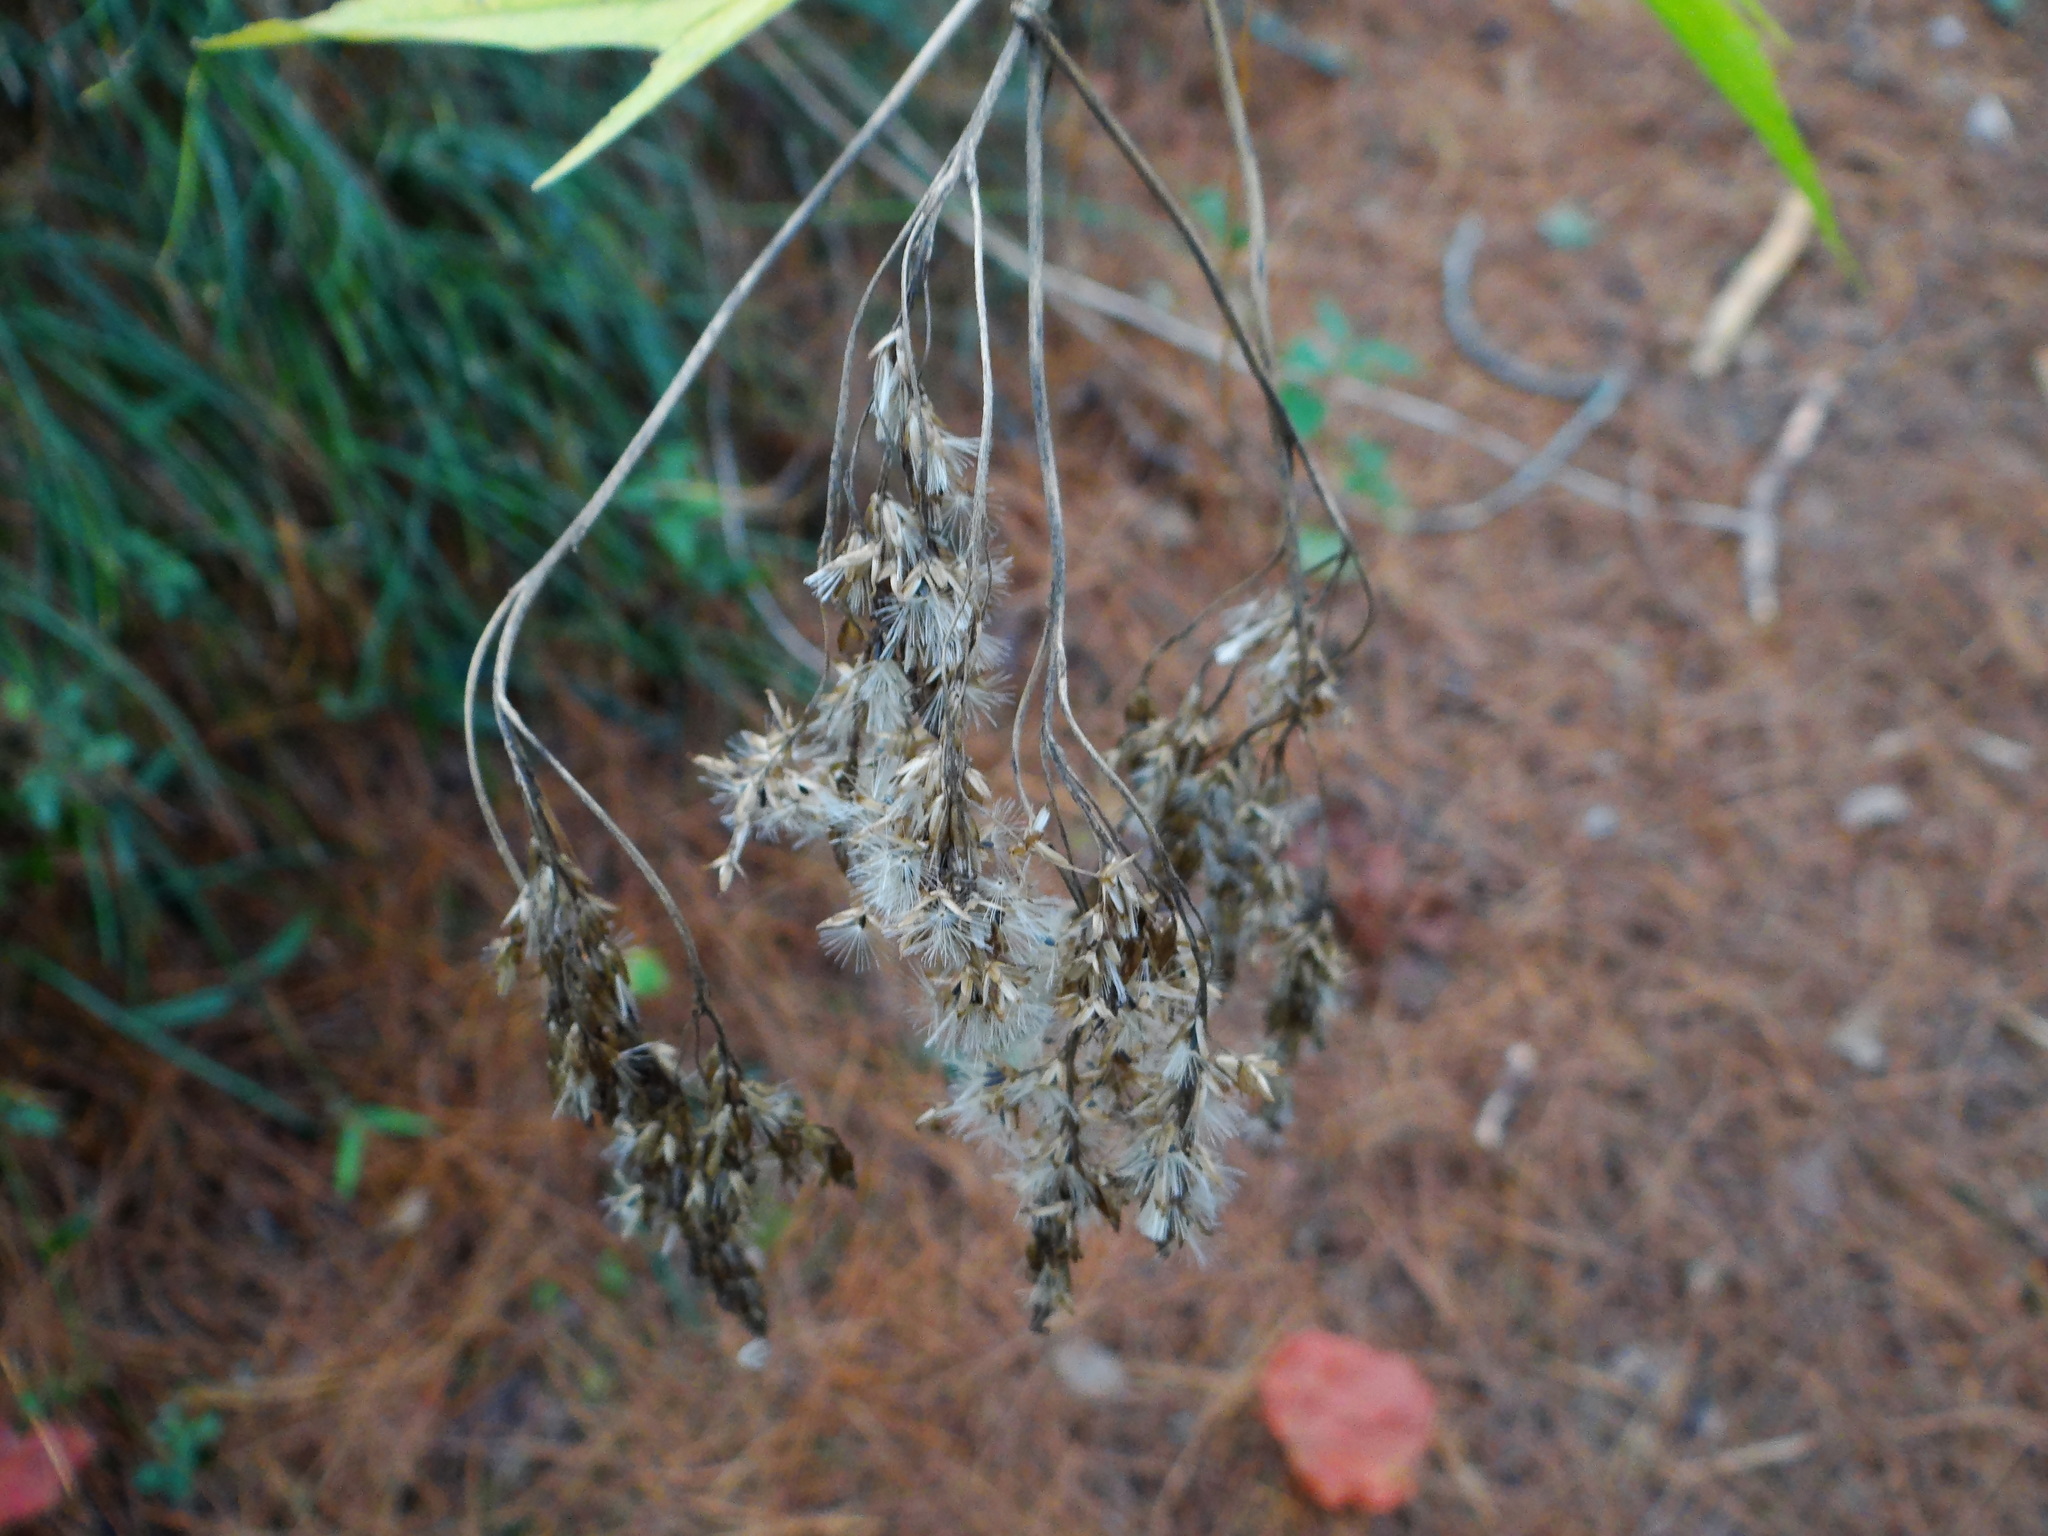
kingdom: Plantae
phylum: Tracheophyta
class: Magnoliopsida
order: Asterales
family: Asteraceae
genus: Eupatorium
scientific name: Eupatorium formosanum
